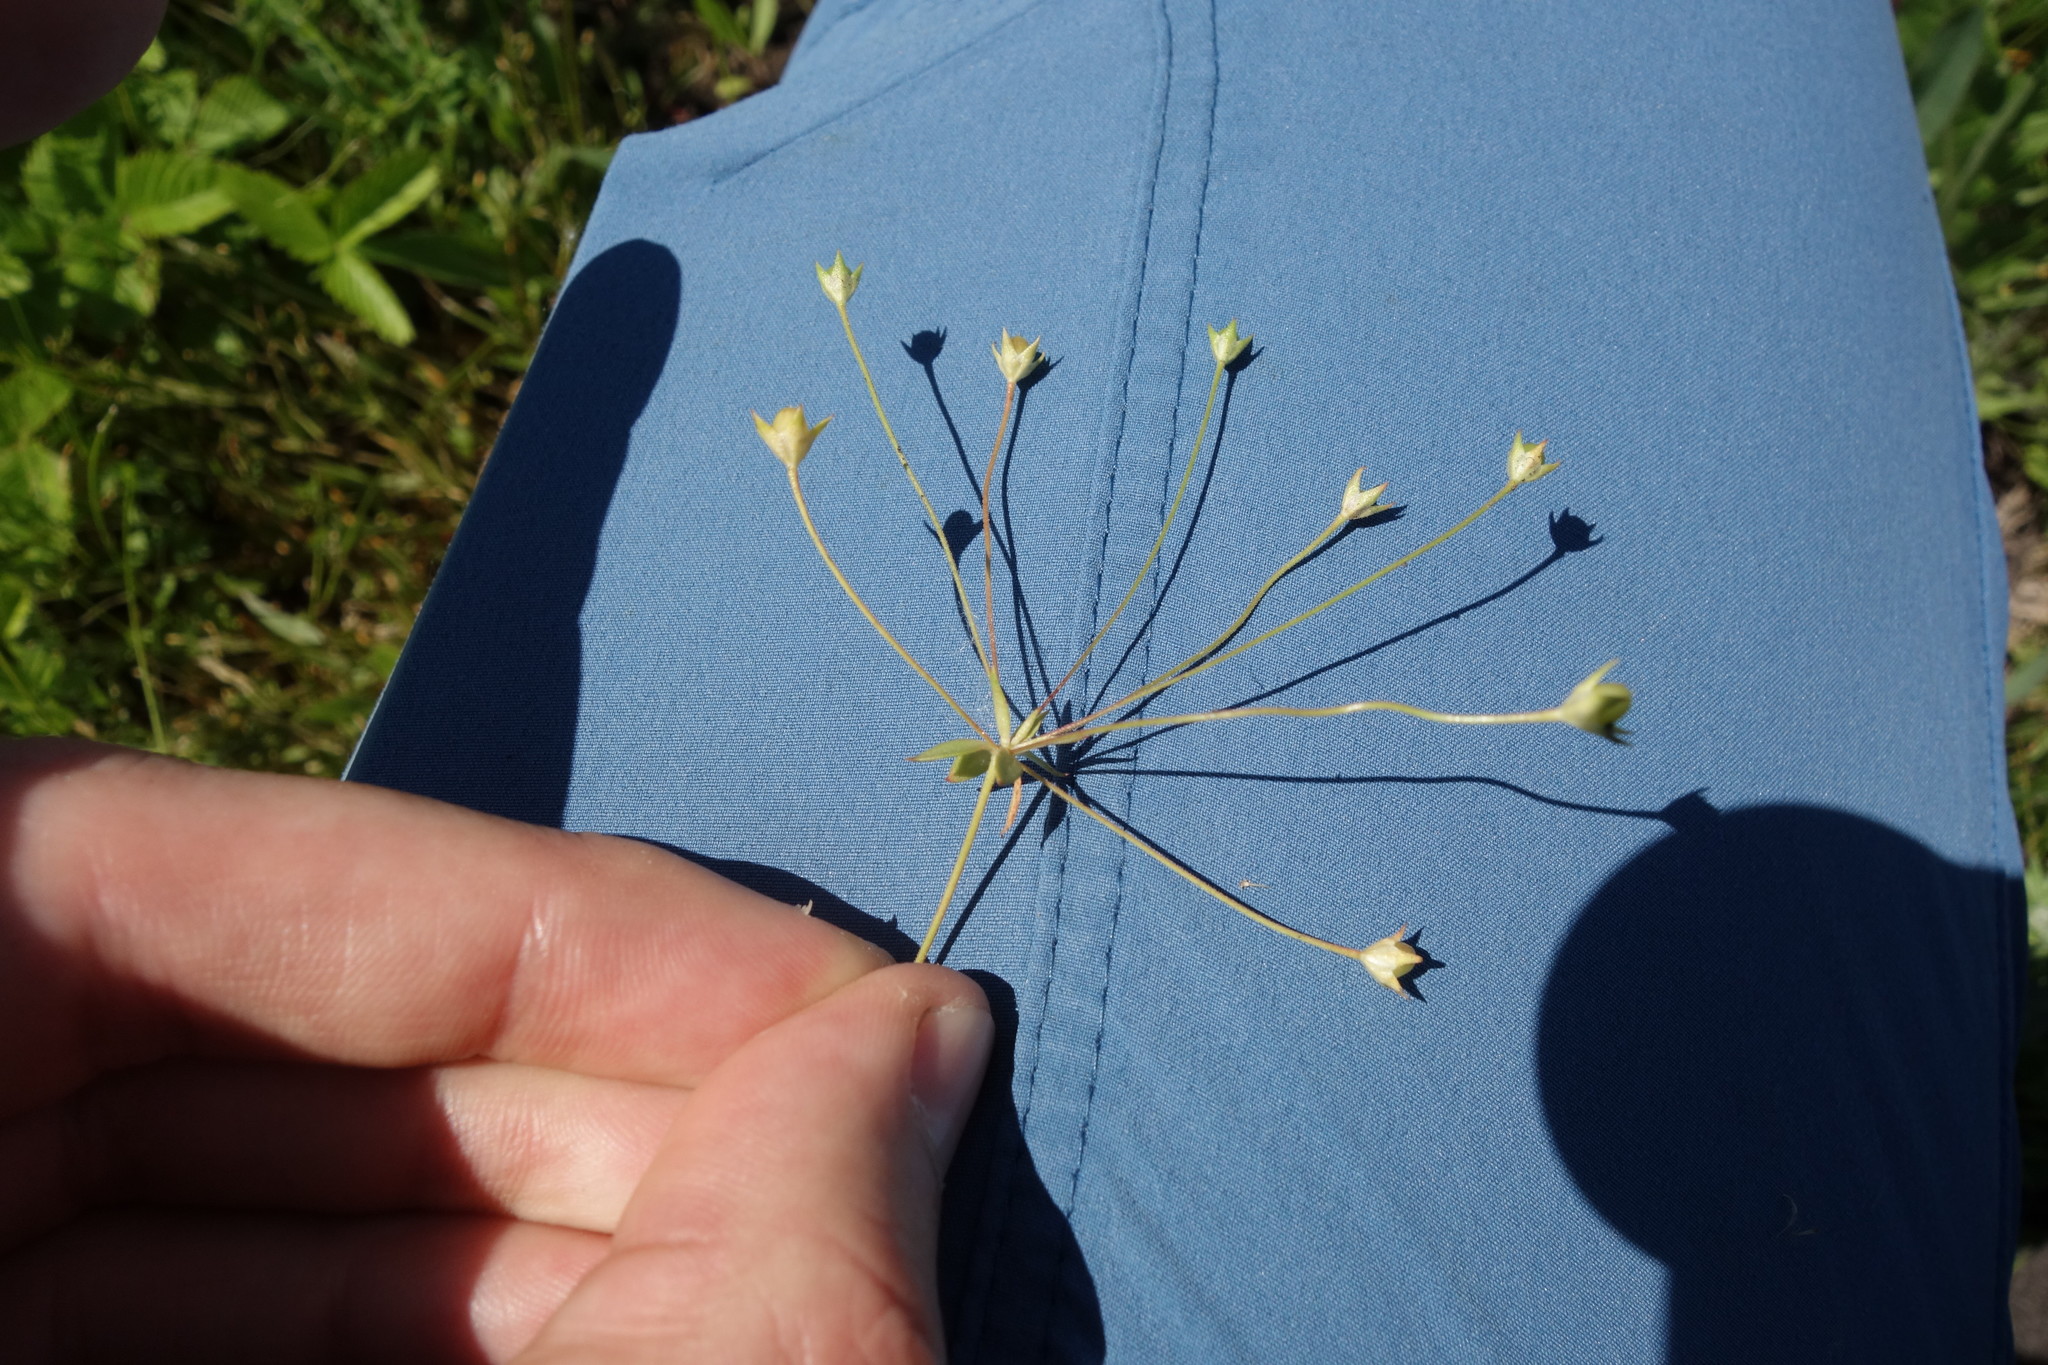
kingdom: Plantae
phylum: Tracheophyta
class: Magnoliopsida
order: Ericales
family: Primulaceae
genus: Androsace
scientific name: Androsace elongata
